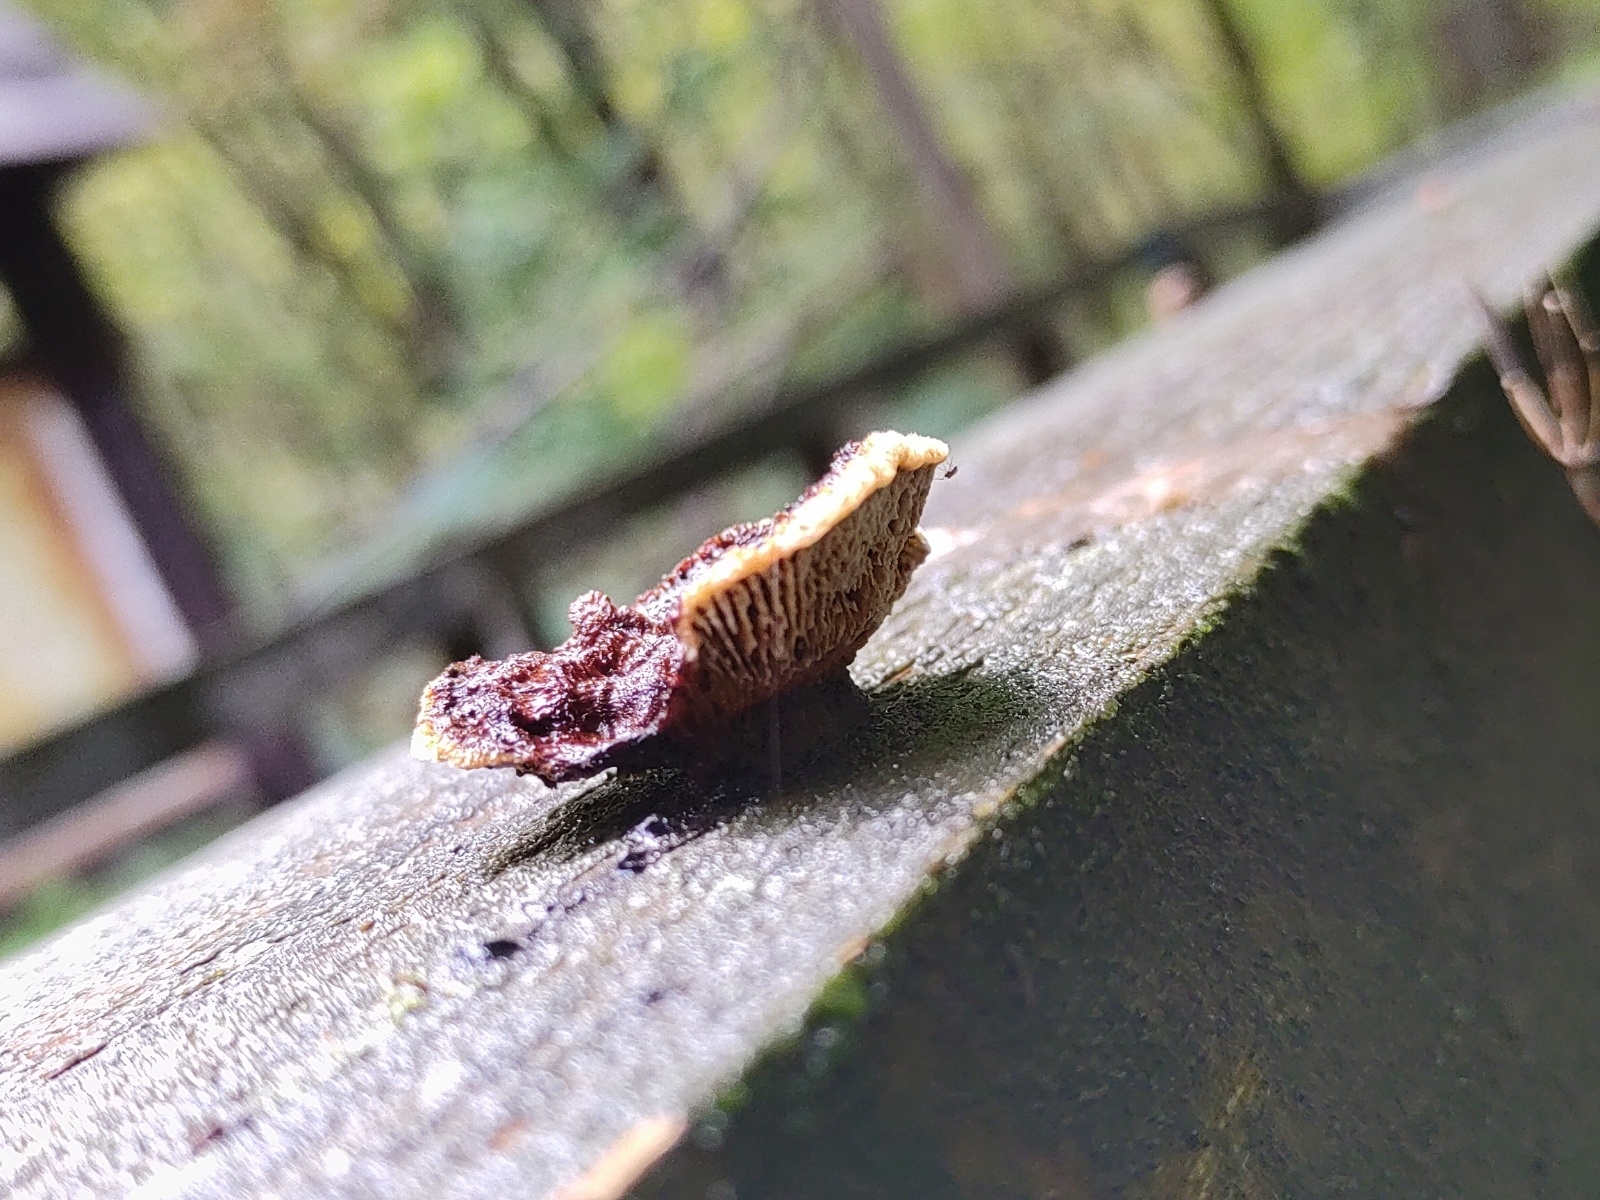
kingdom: Fungi
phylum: Basidiomycota
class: Agaricomycetes
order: Gloeophyllales
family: Gloeophyllaceae
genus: Gloeophyllum
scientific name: Gloeophyllum sepiarium
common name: Conifer mazegill
